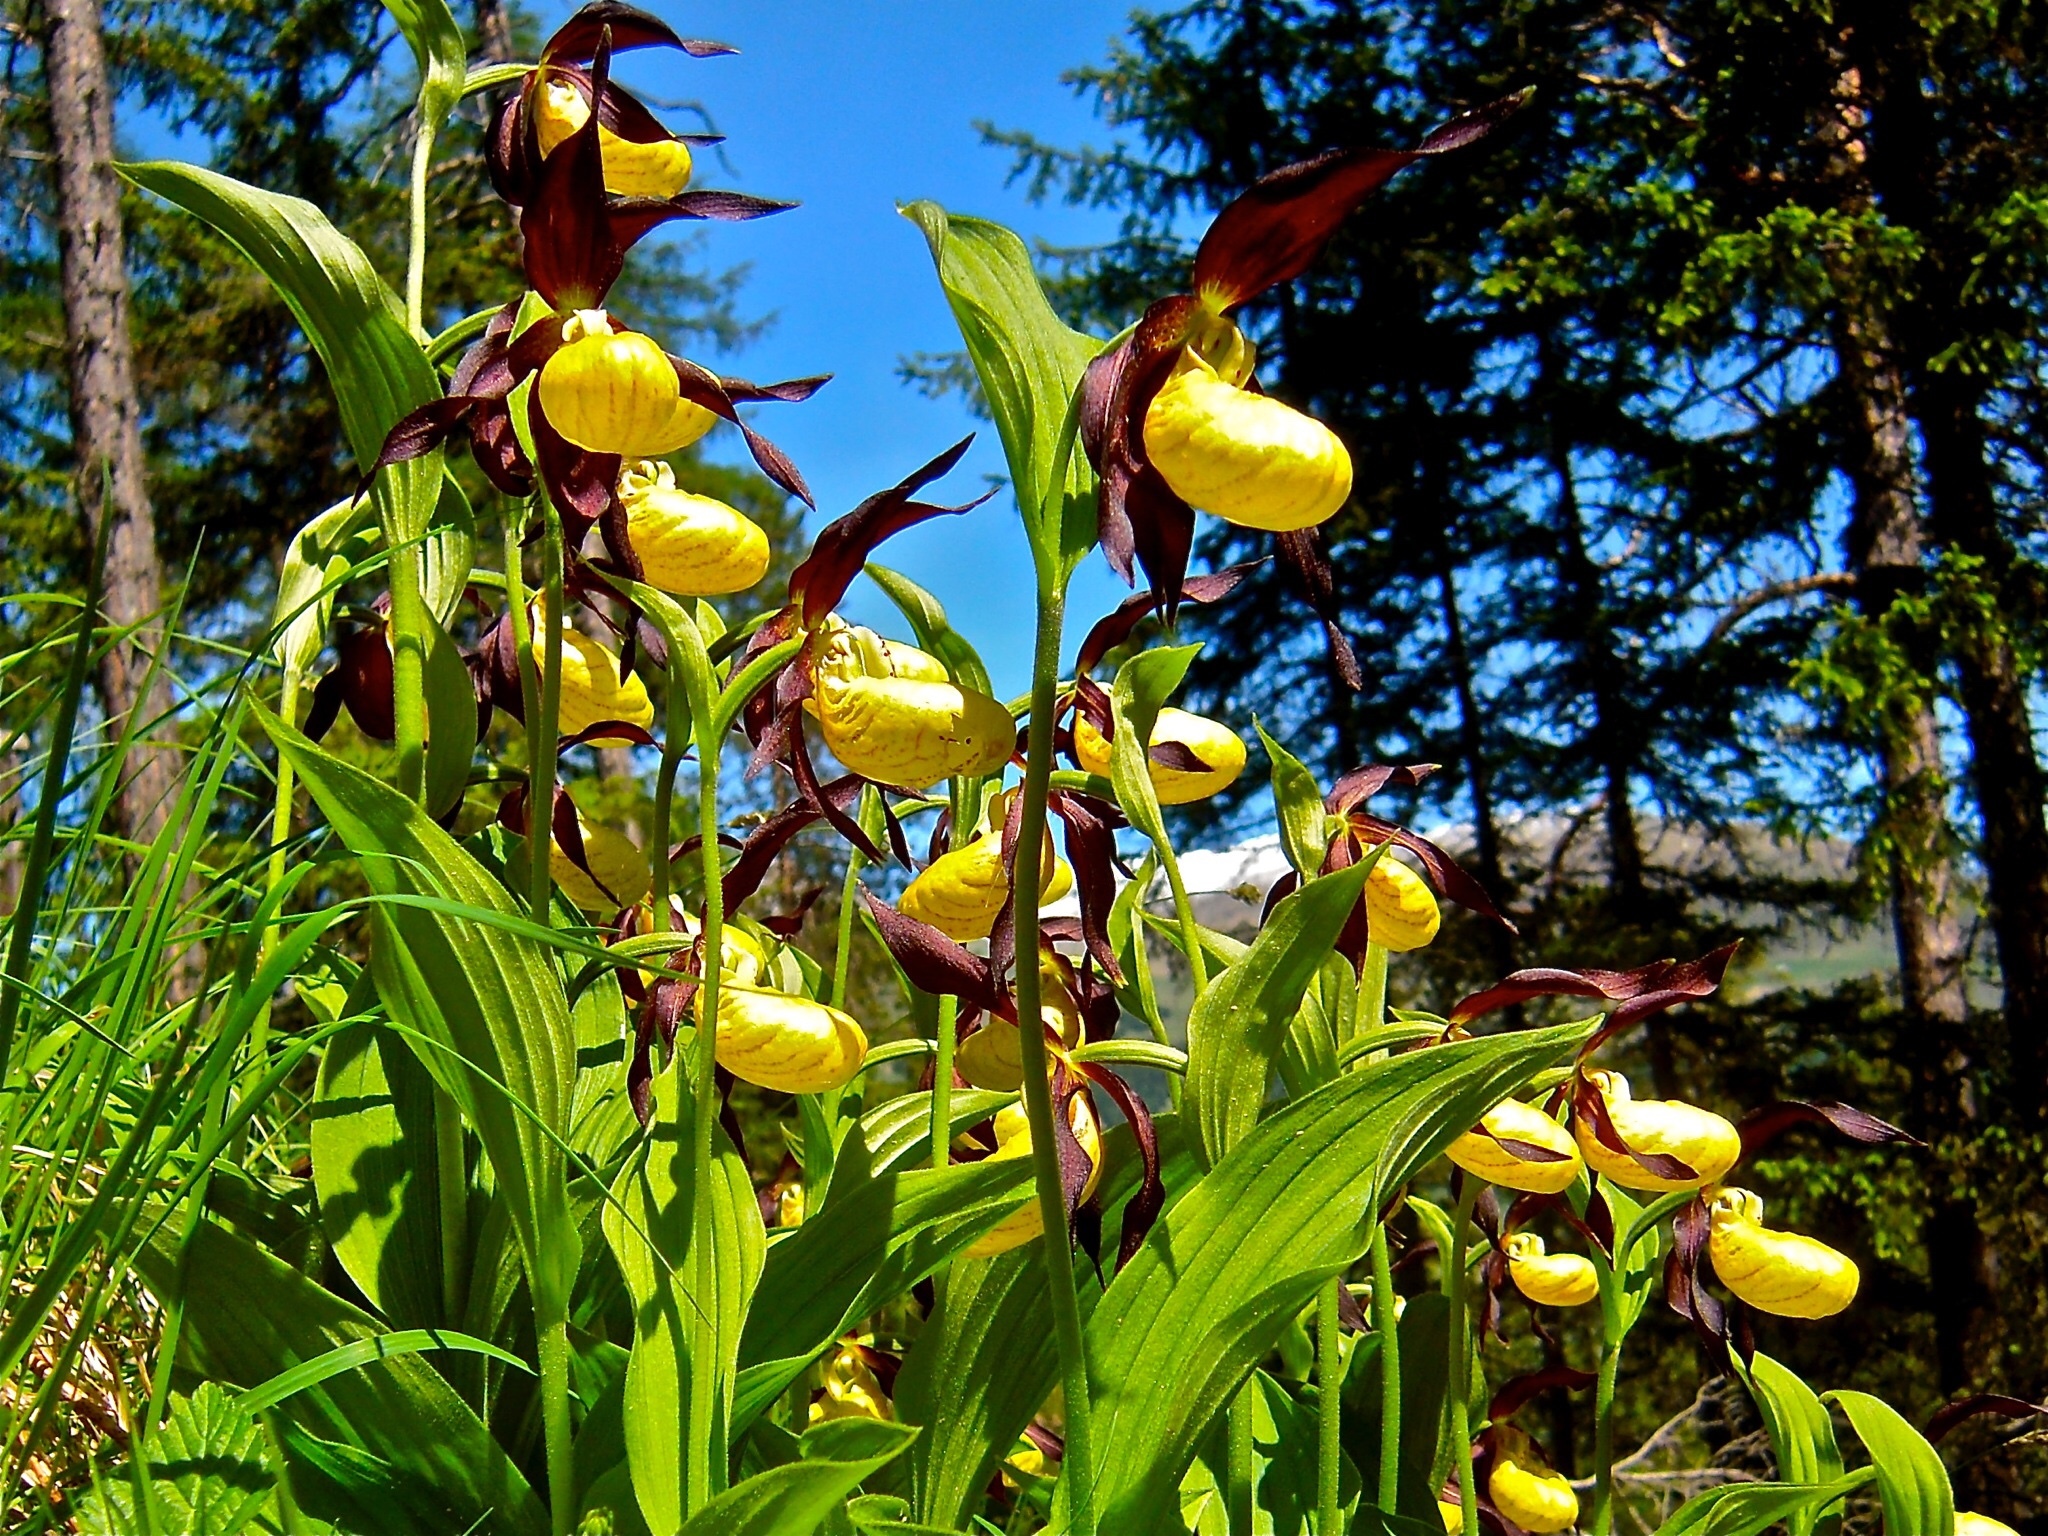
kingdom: Plantae
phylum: Tracheophyta
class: Liliopsida
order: Asparagales
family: Orchidaceae
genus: Cypripedium
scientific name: Cypripedium calceolus
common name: Lady's-slipper
